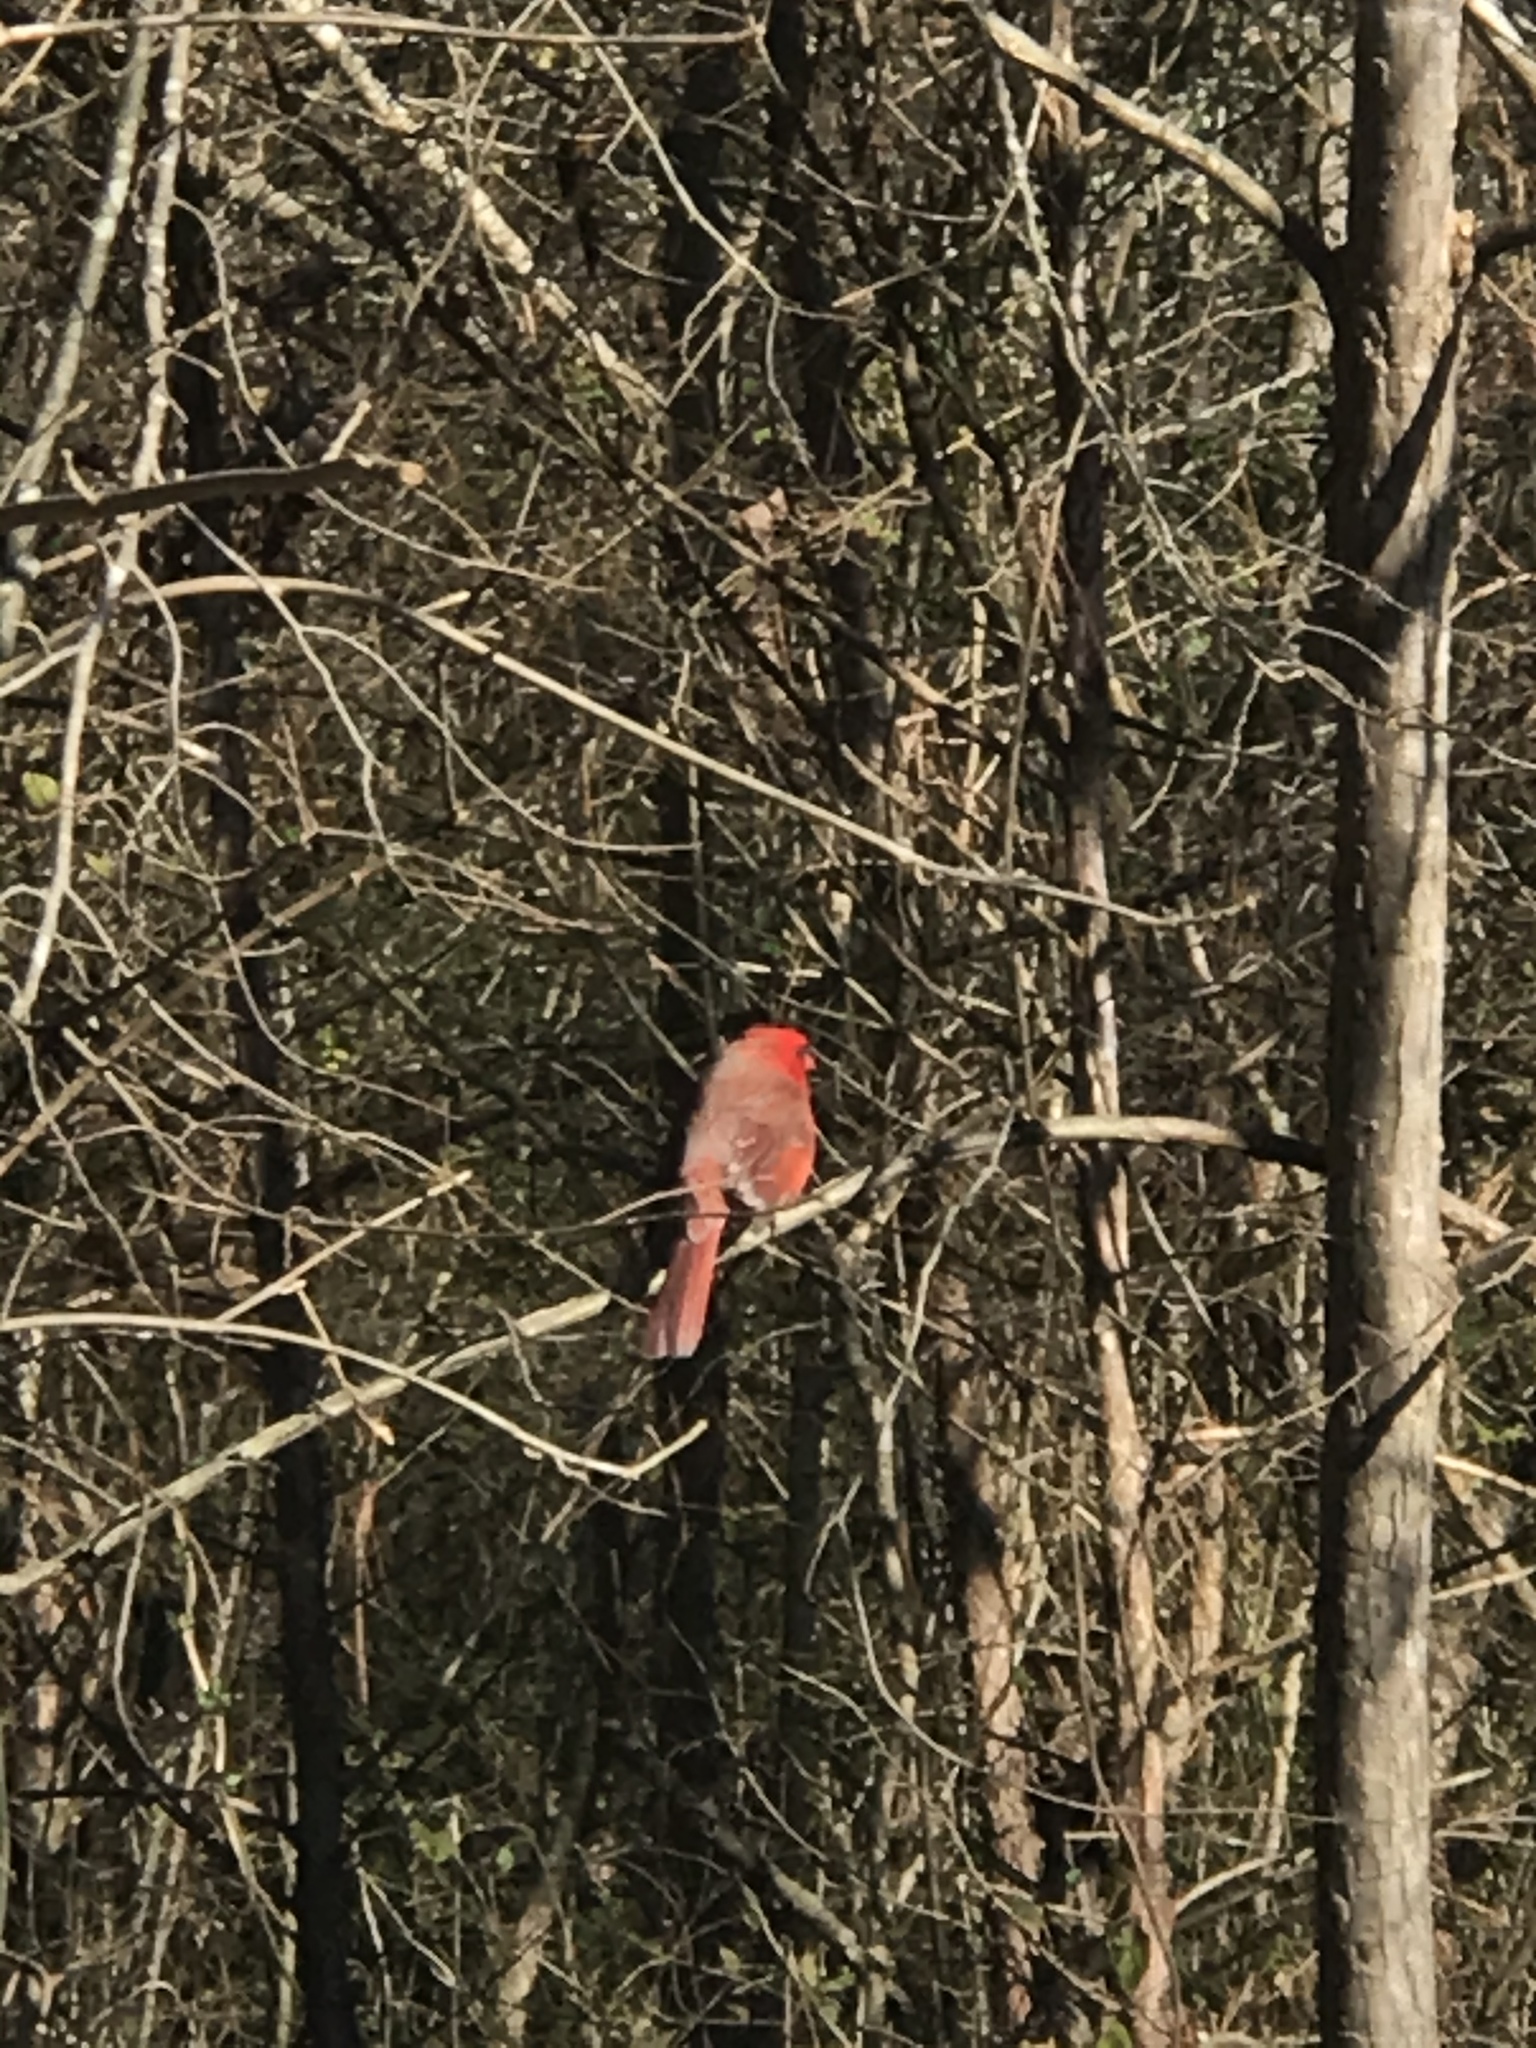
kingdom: Animalia
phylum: Chordata
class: Aves
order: Passeriformes
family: Cardinalidae
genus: Cardinalis
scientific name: Cardinalis cardinalis
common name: Northern cardinal
